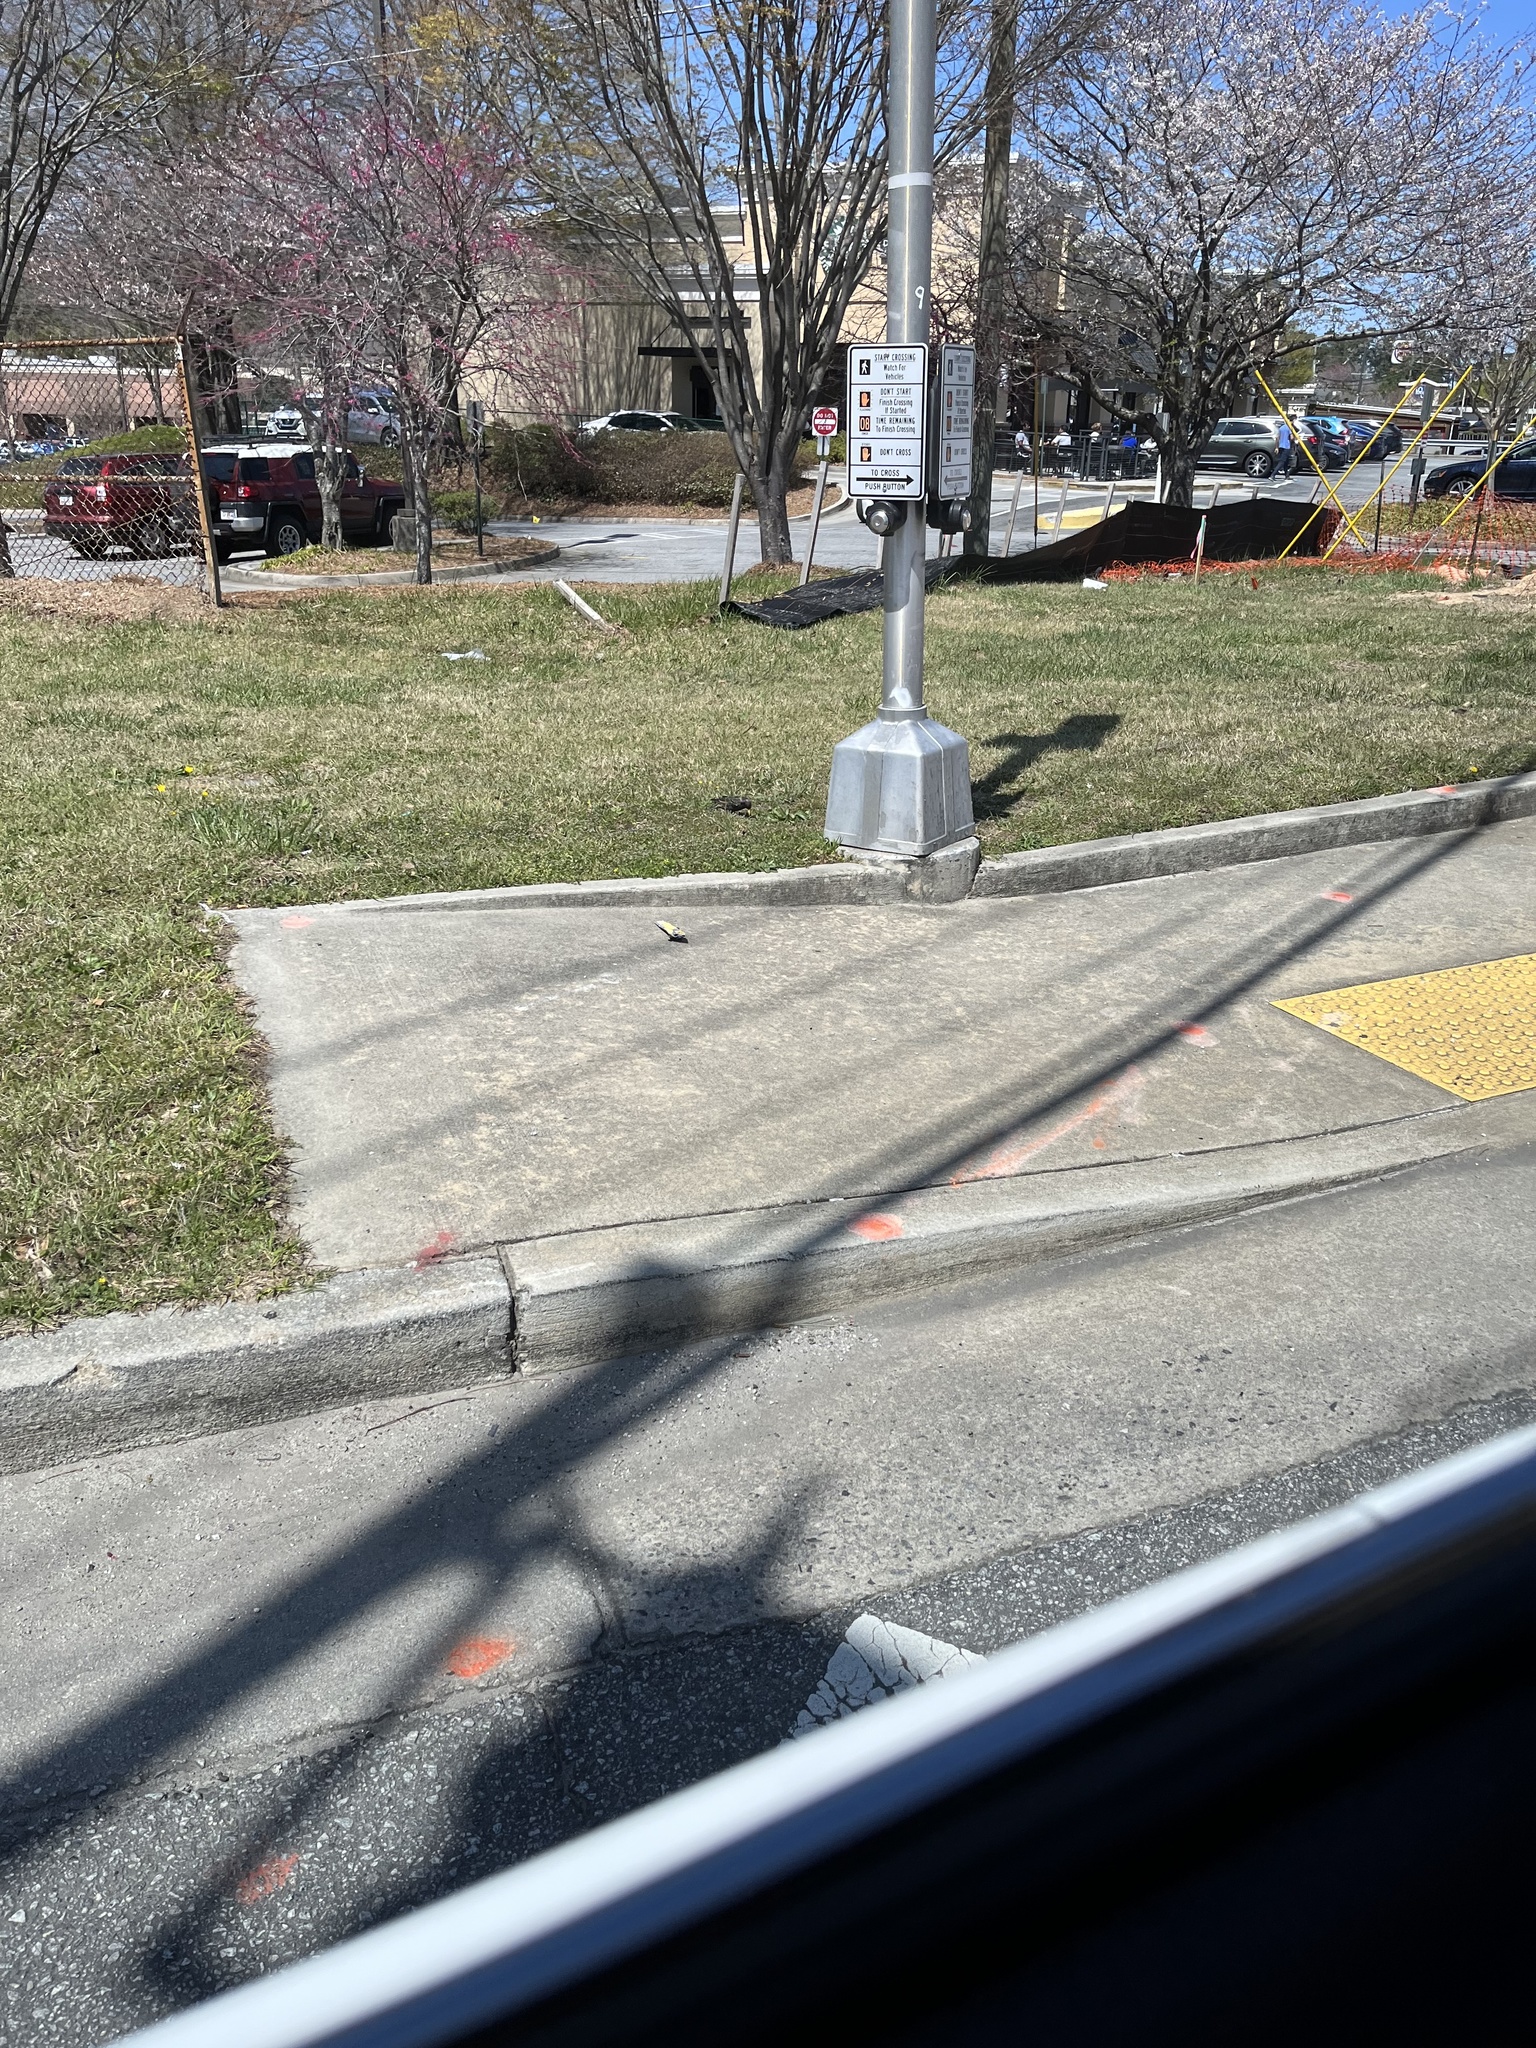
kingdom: Animalia
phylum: Chordata
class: Aves
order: Passeriformes
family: Sturnidae
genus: Sturnus
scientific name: Sturnus vulgaris
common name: Common starling
